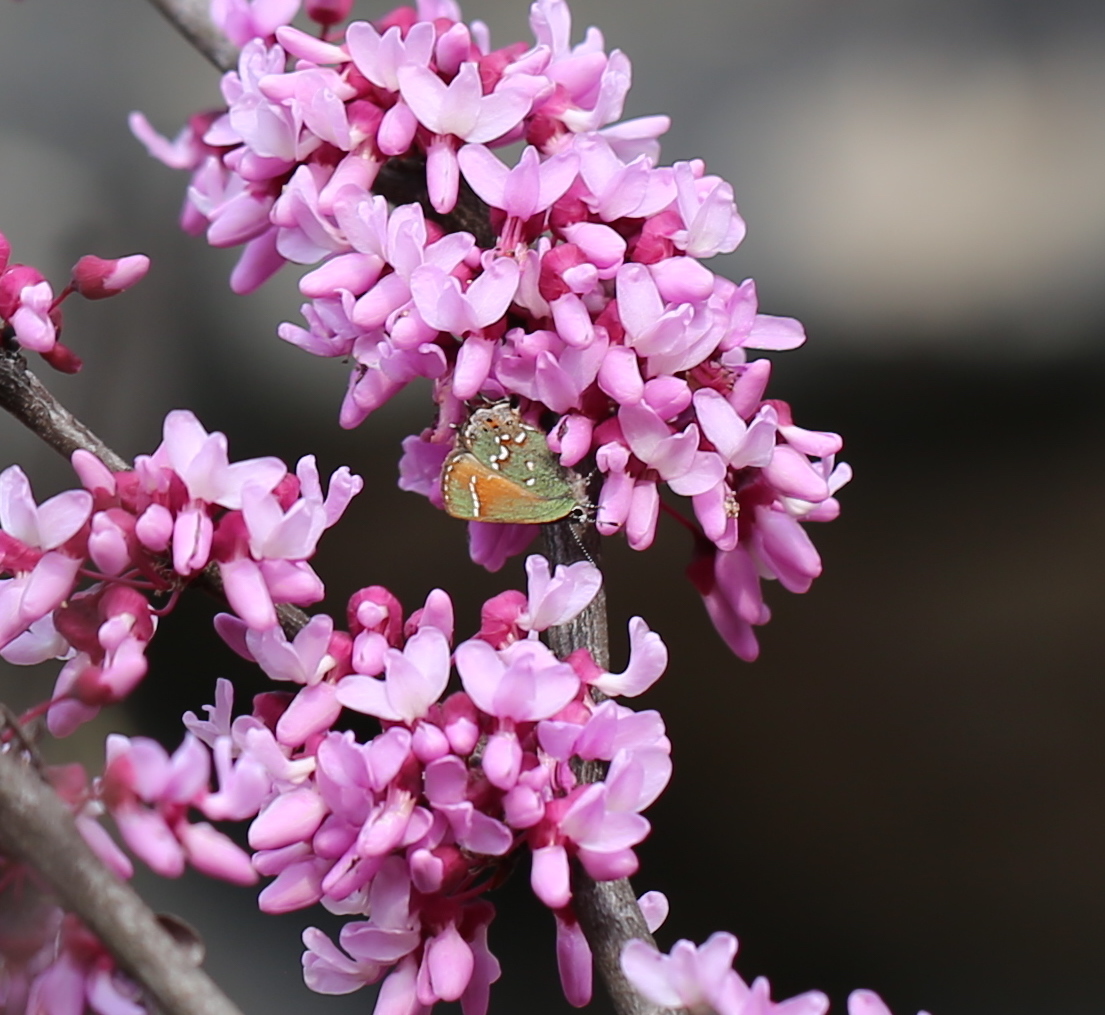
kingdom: Animalia
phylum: Arthropoda
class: Insecta
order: Lepidoptera
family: Lycaenidae
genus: Mitoura
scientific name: Mitoura gryneus
